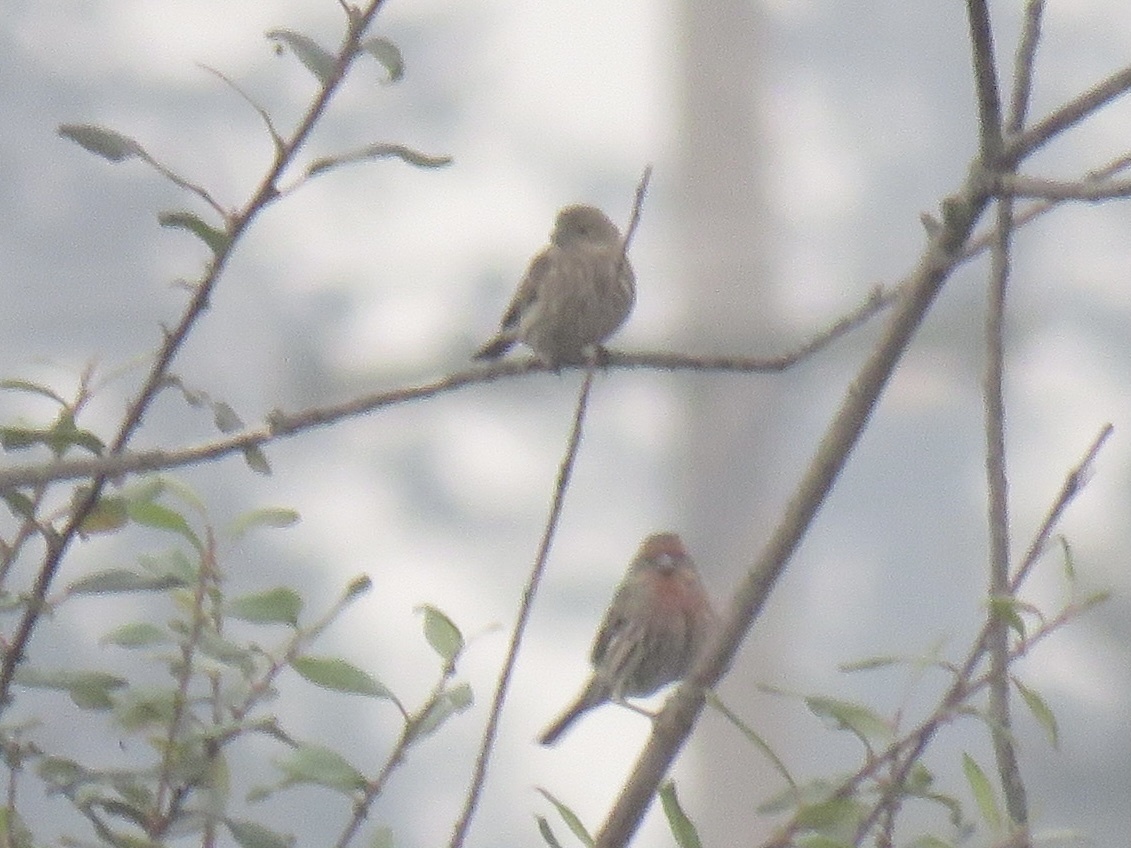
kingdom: Animalia
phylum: Chordata
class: Aves
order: Passeriformes
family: Fringillidae
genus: Haemorhous
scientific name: Haemorhous mexicanus
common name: House finch
